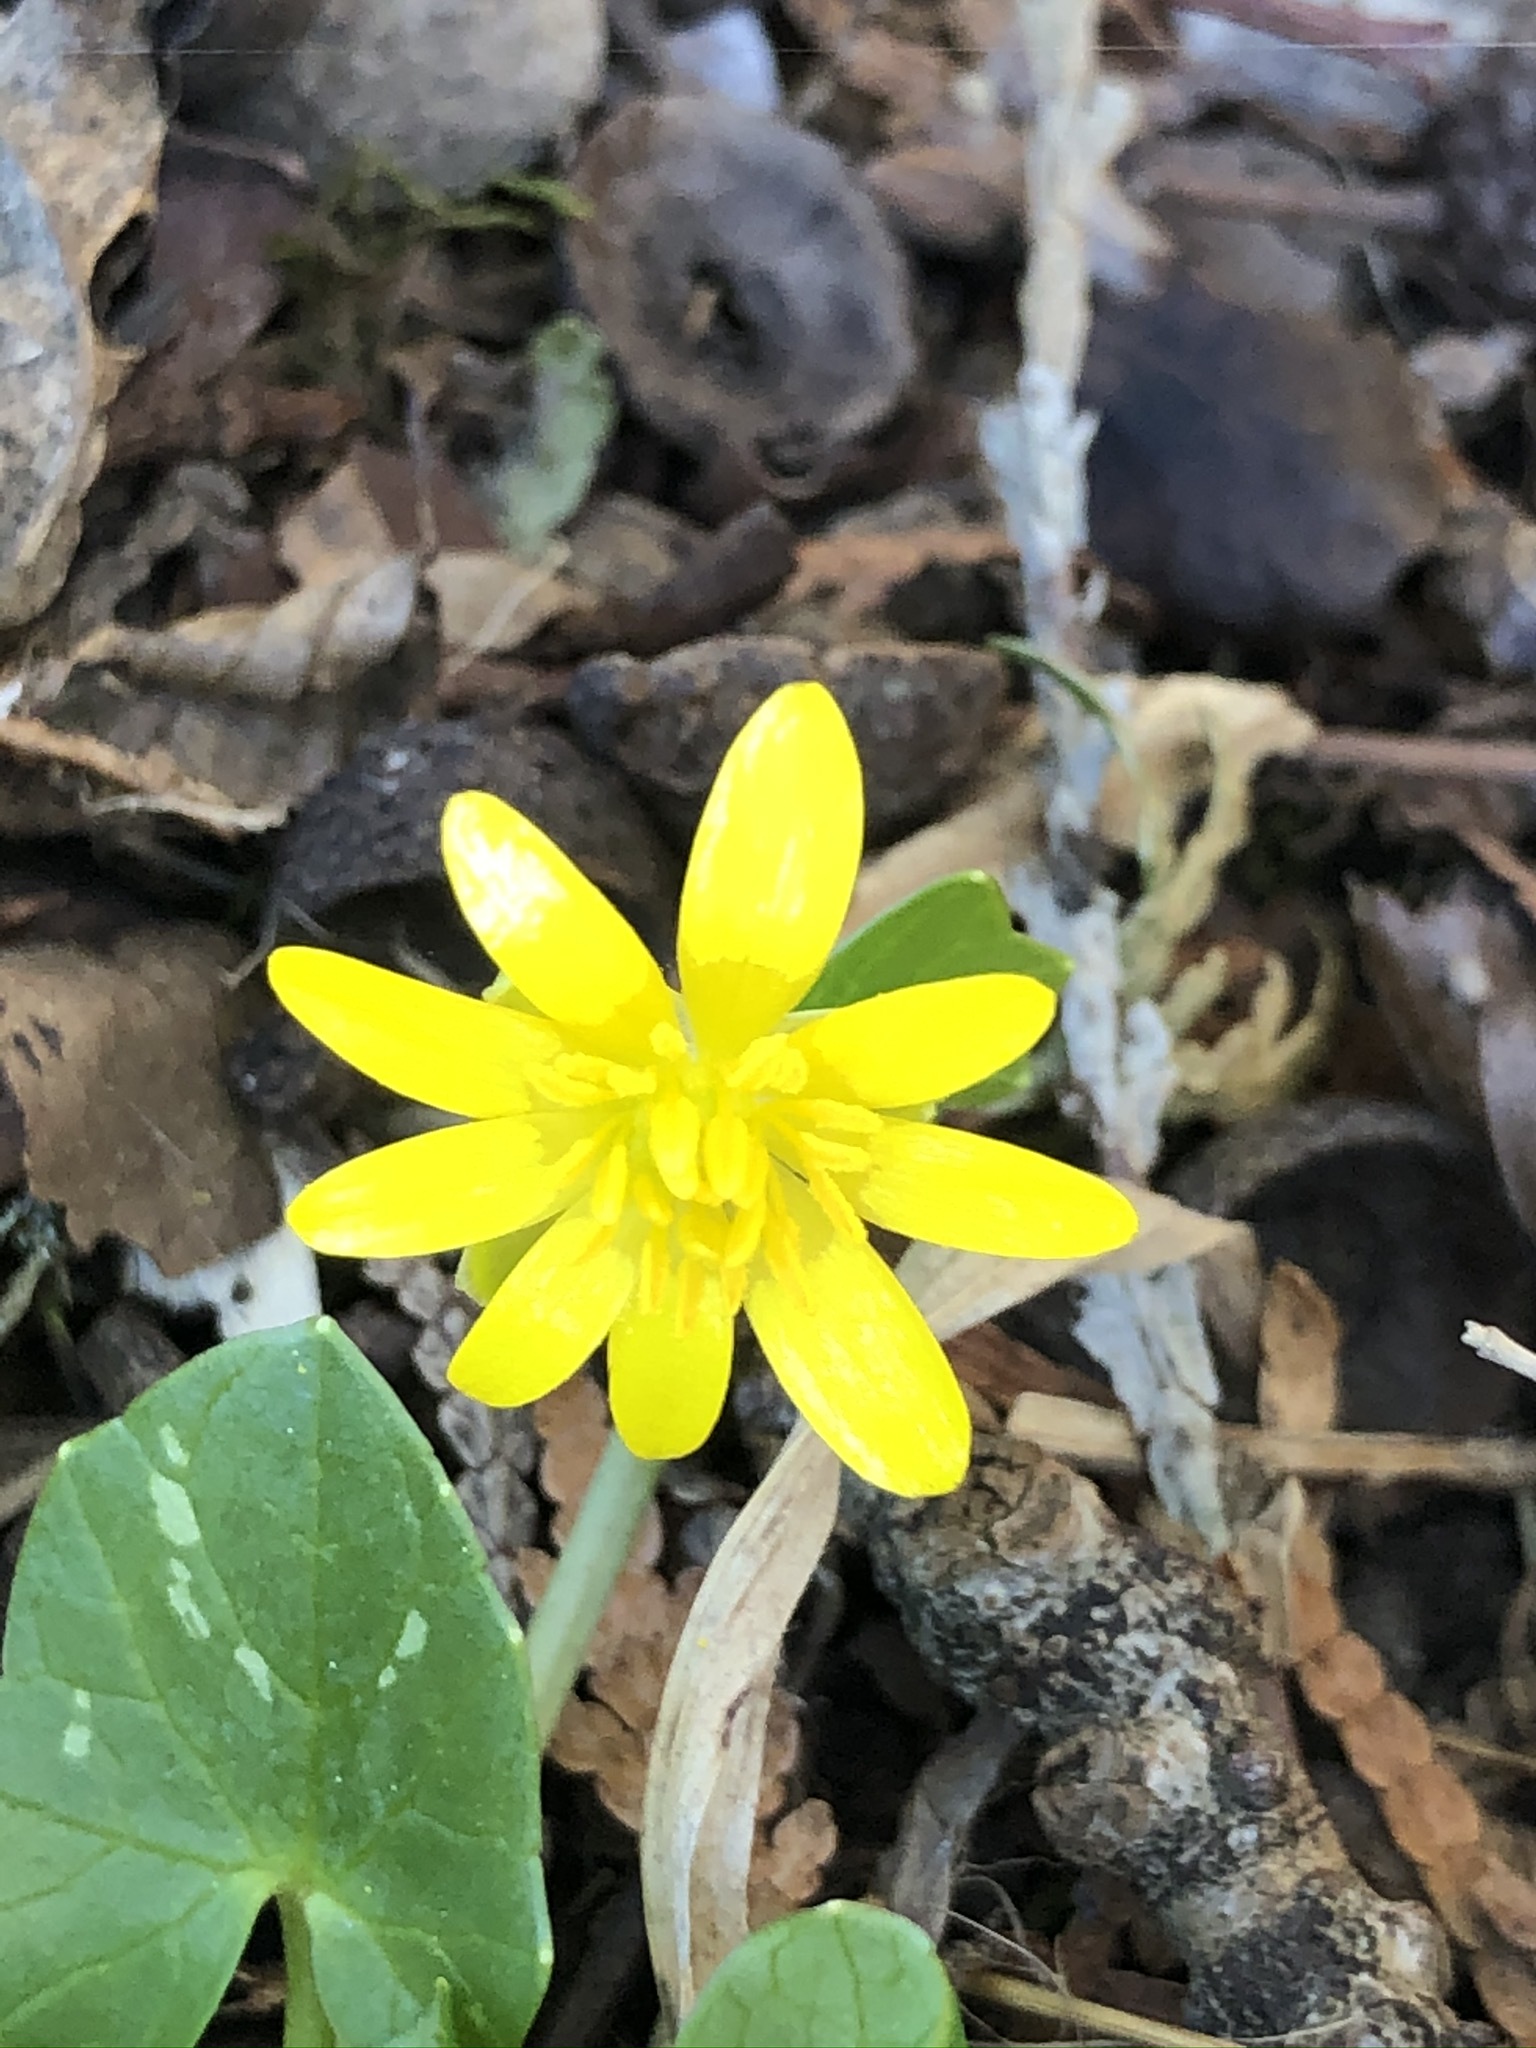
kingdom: Plantae
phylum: Tracheophyta
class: Magnoliopsida
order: Ranunculales
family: Ranunculaceae
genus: Ficaria
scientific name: Ficaria verna
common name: Lesser celandine
